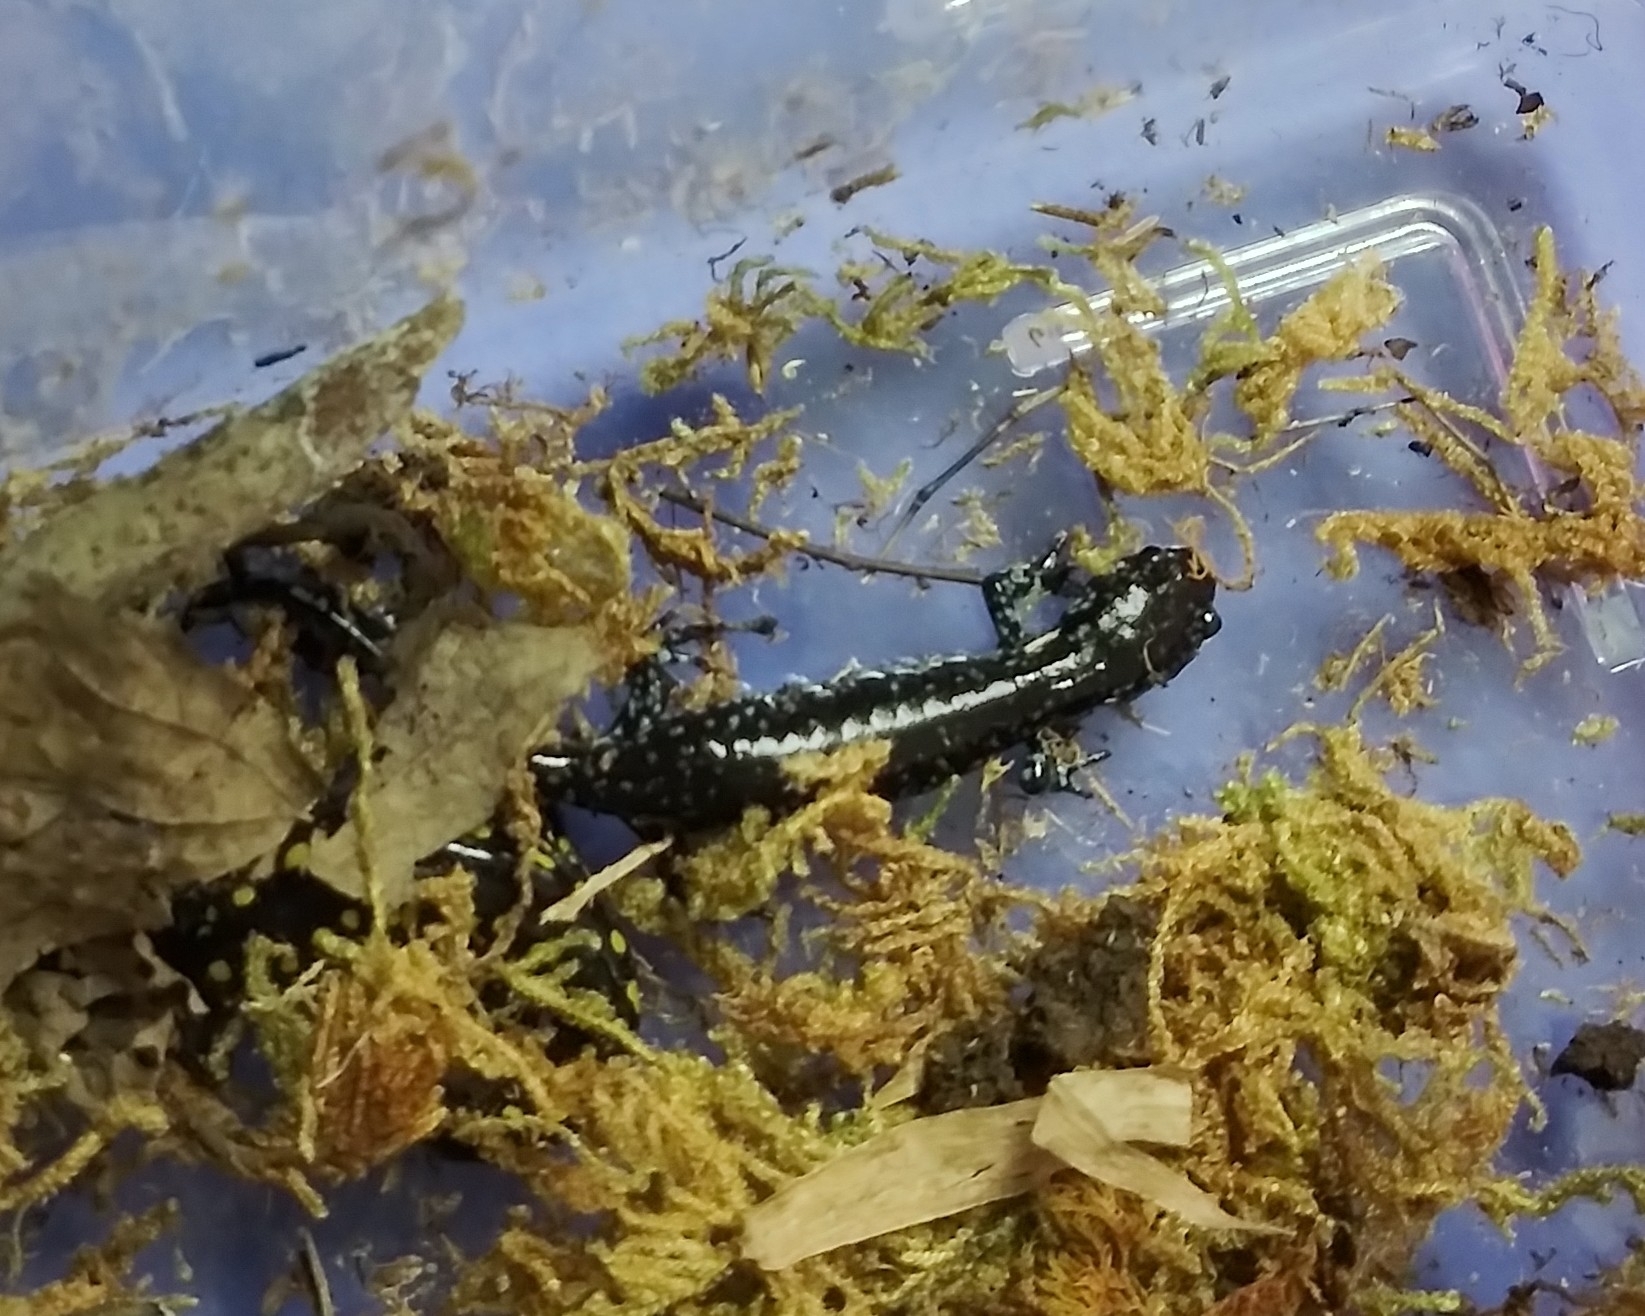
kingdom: Animalia
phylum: Chordata
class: Amphibia
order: Caudata
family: Ambystomatidae
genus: Ambystoma
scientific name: Ambystoma unisexual
